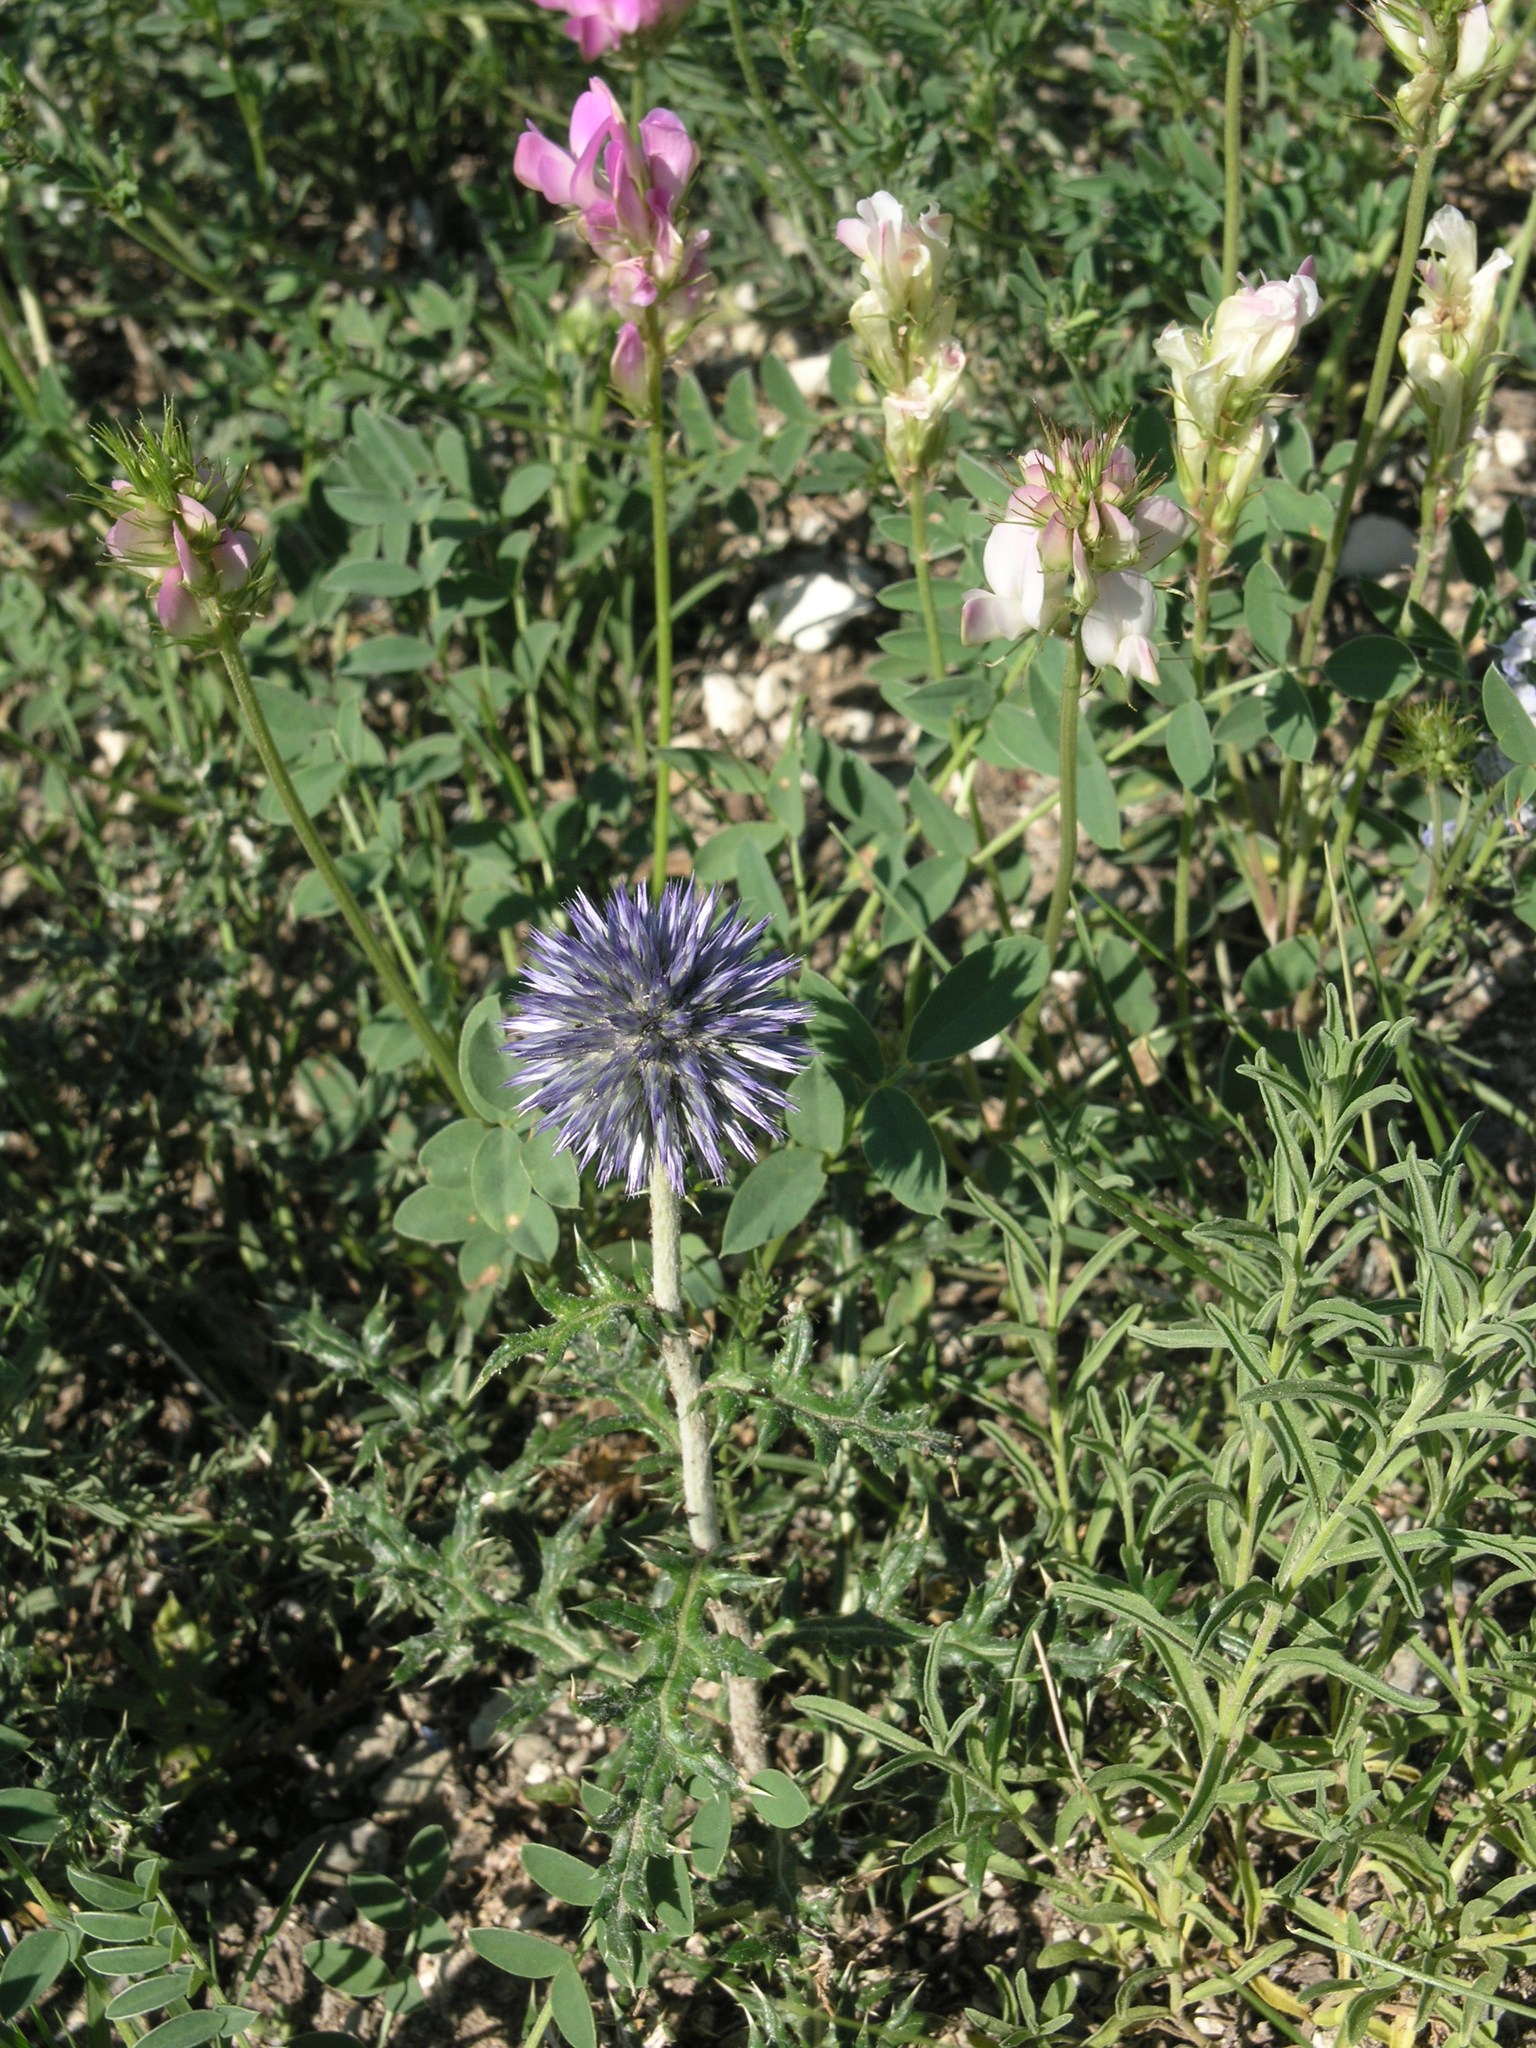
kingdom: Plantae
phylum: Tracheophyta
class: Magnoliopsida
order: Fabales
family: Fabaceae
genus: Hedysarum
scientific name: Hedysarum gmelinii
